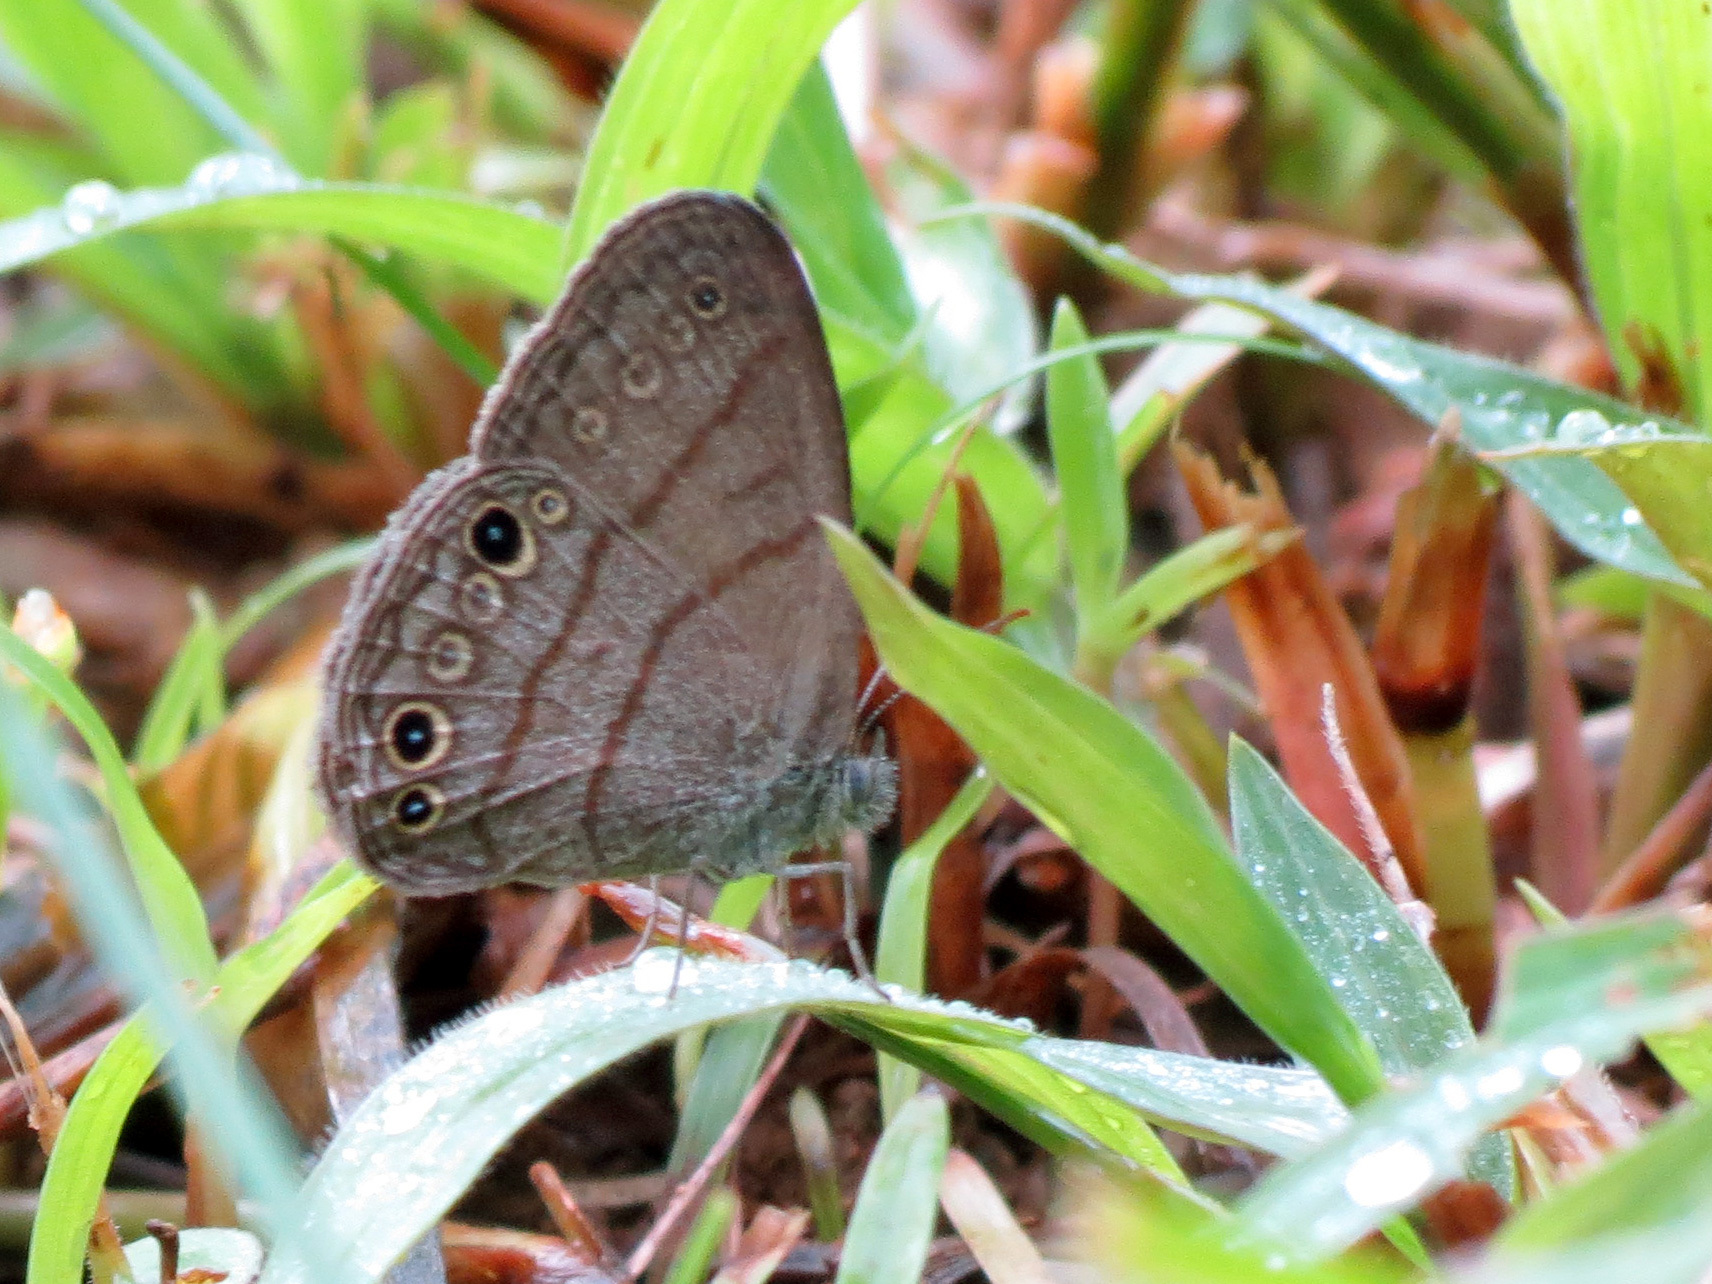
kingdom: Animalia
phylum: Arthropoda
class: Insecta
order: Lepidoptera
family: Nymphalidae
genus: Hermeuptychia
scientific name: Hermeuptychia hermes
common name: Hermes satyr
